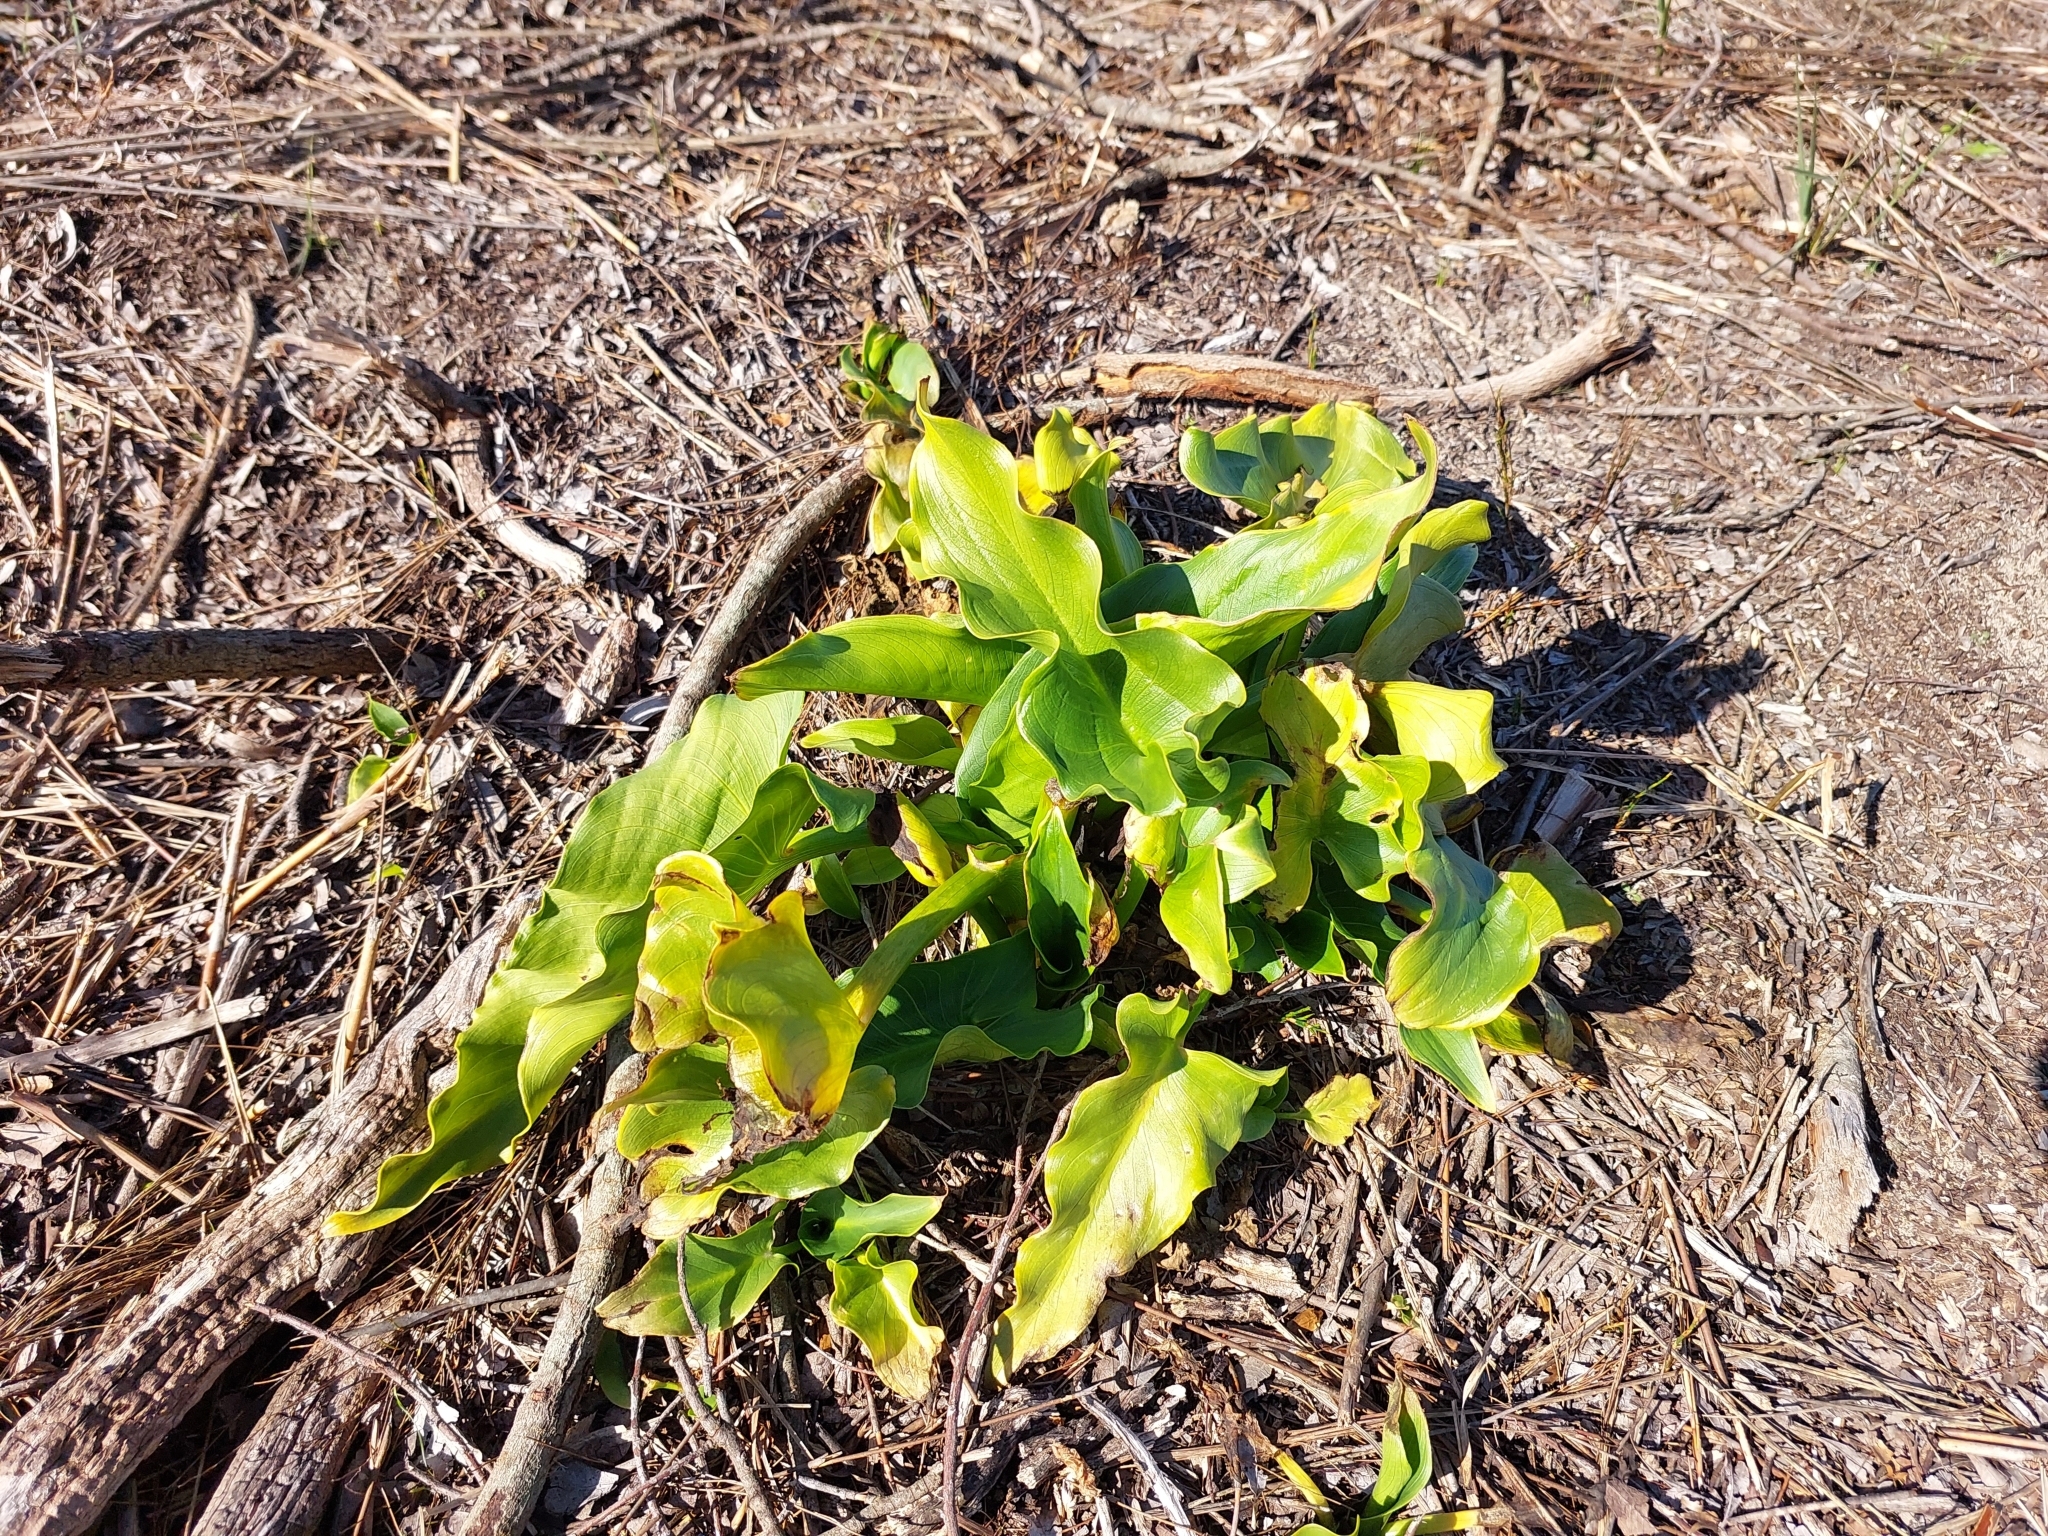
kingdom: Plantae
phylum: Tracheophyta
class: Liliopsida
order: Alismatales
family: Araceae
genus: Zantedeschia
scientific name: Zantedeschia aethiopica
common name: Altar-lily
